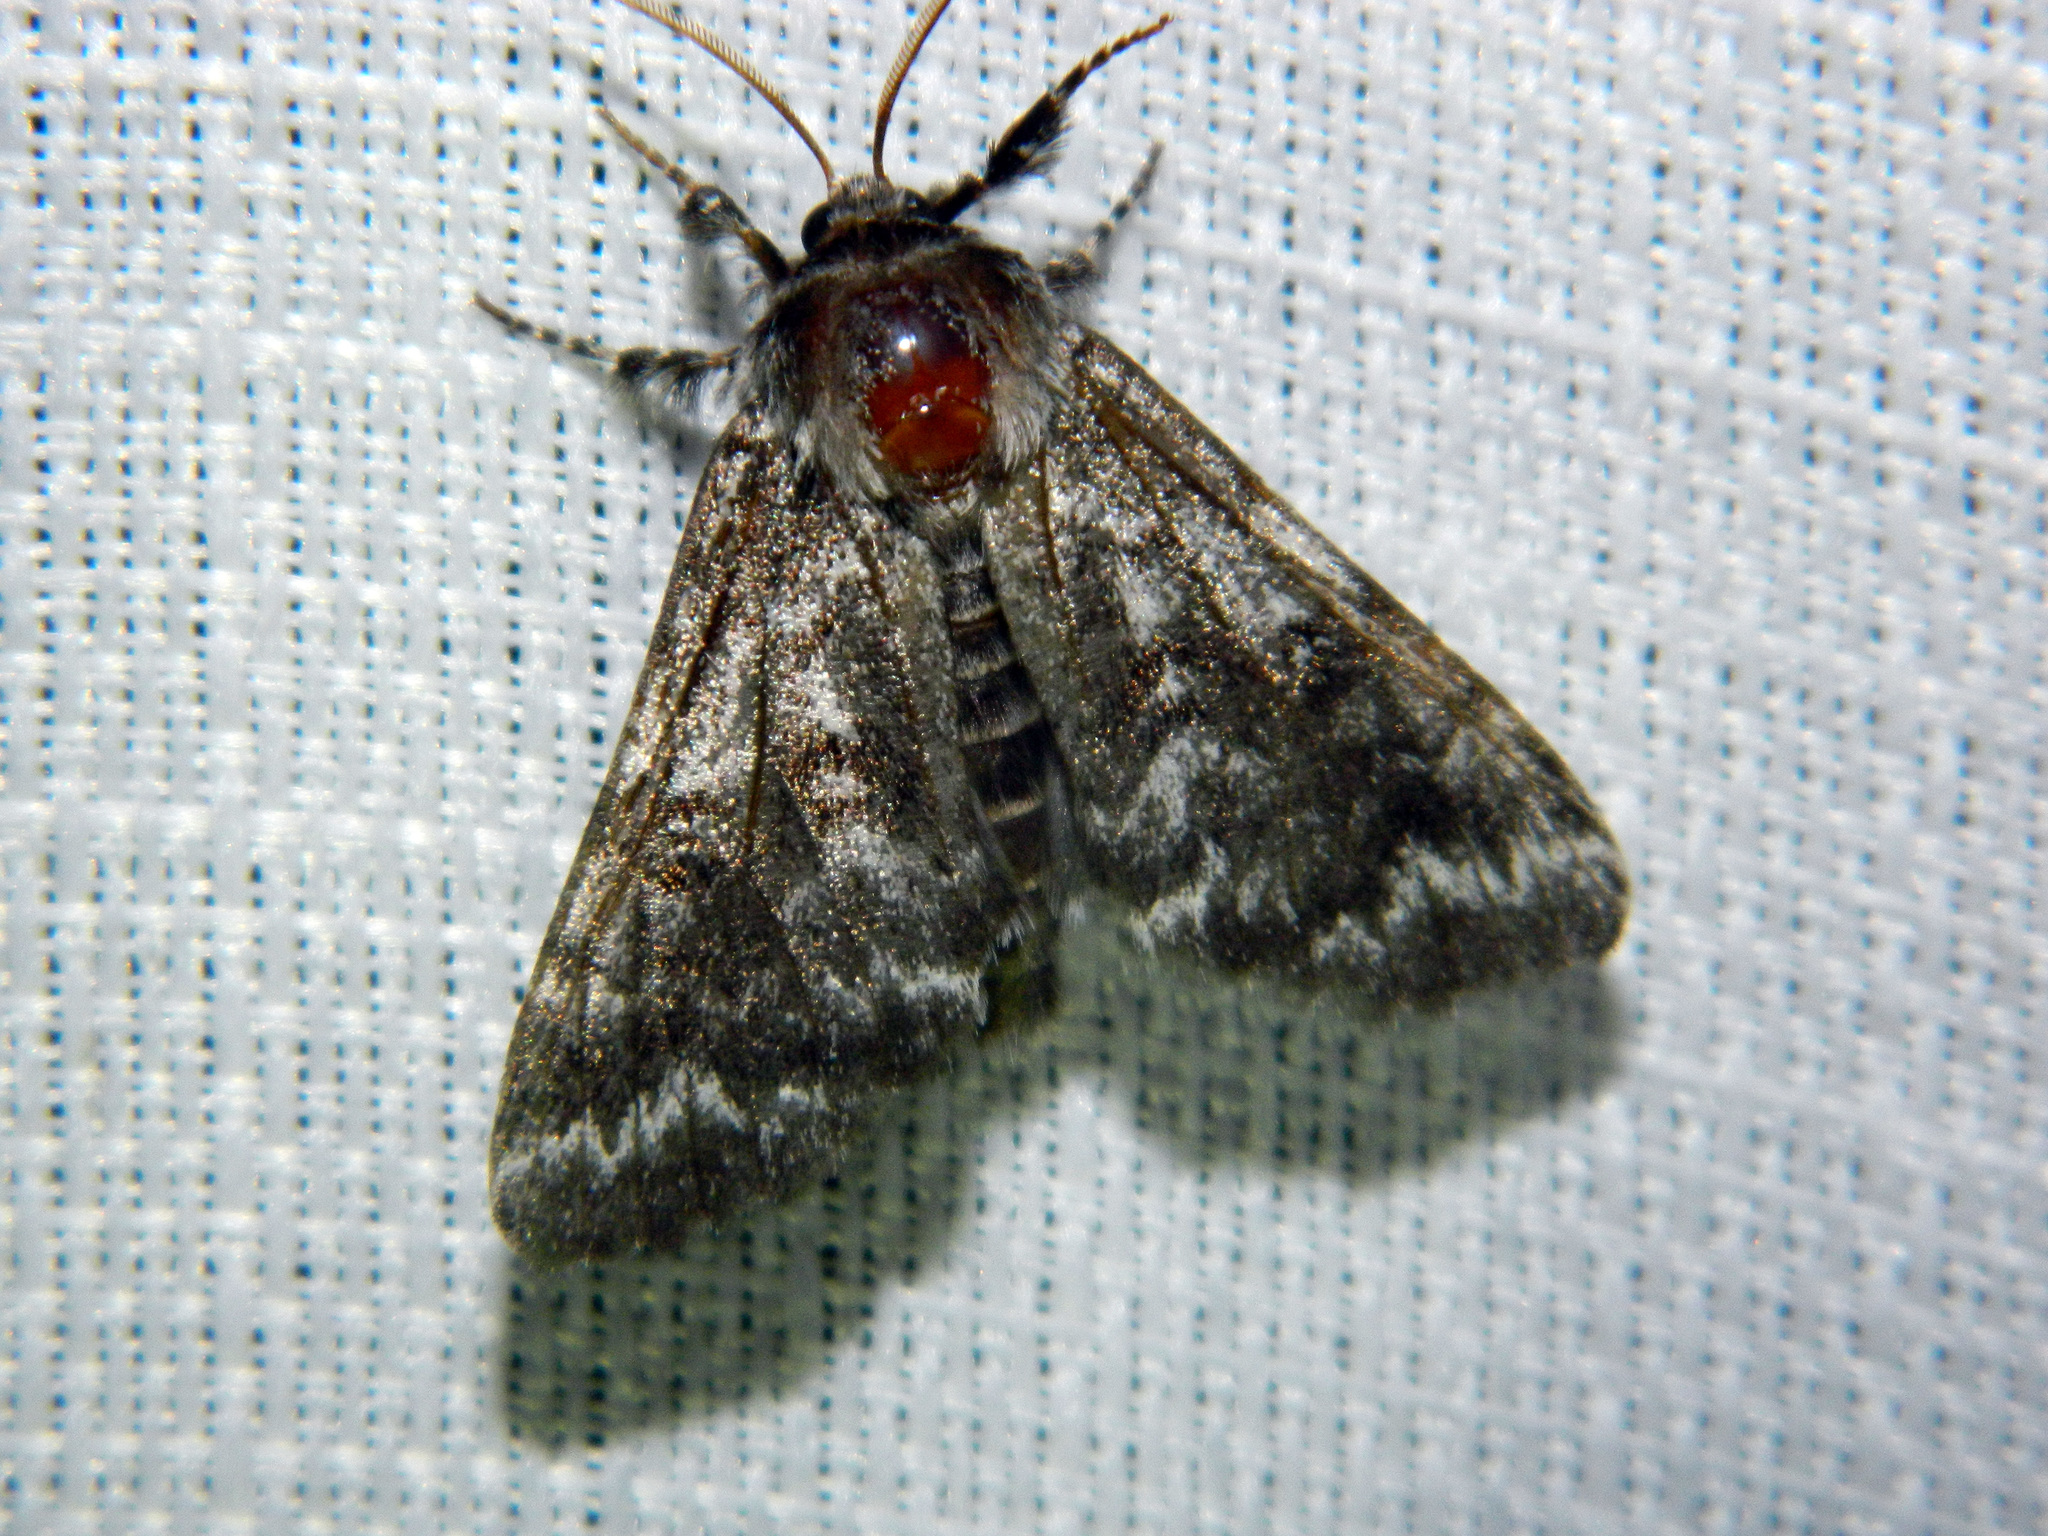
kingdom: Animalia
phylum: Arthropoda
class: Insecta
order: Lepidoptera
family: Noctuidae
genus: Panthea
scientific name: Panthea acronyctoides
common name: Black zigzag moth
